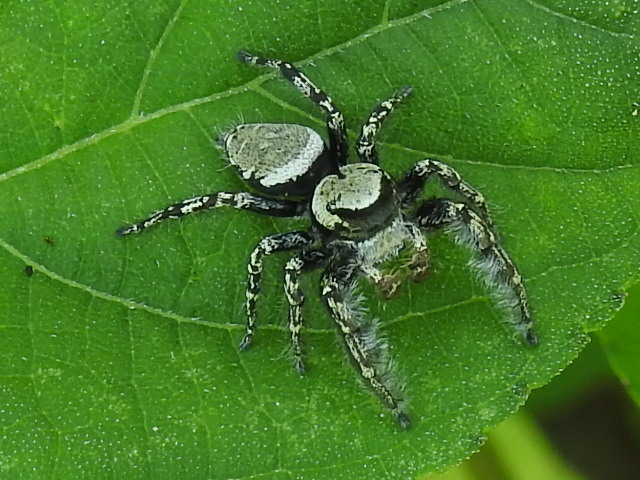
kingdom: Animalia
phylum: Arthropoda
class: Arachnida
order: Araneae
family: Salticidae
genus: Phidippus
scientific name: Phidippus carolinensis
